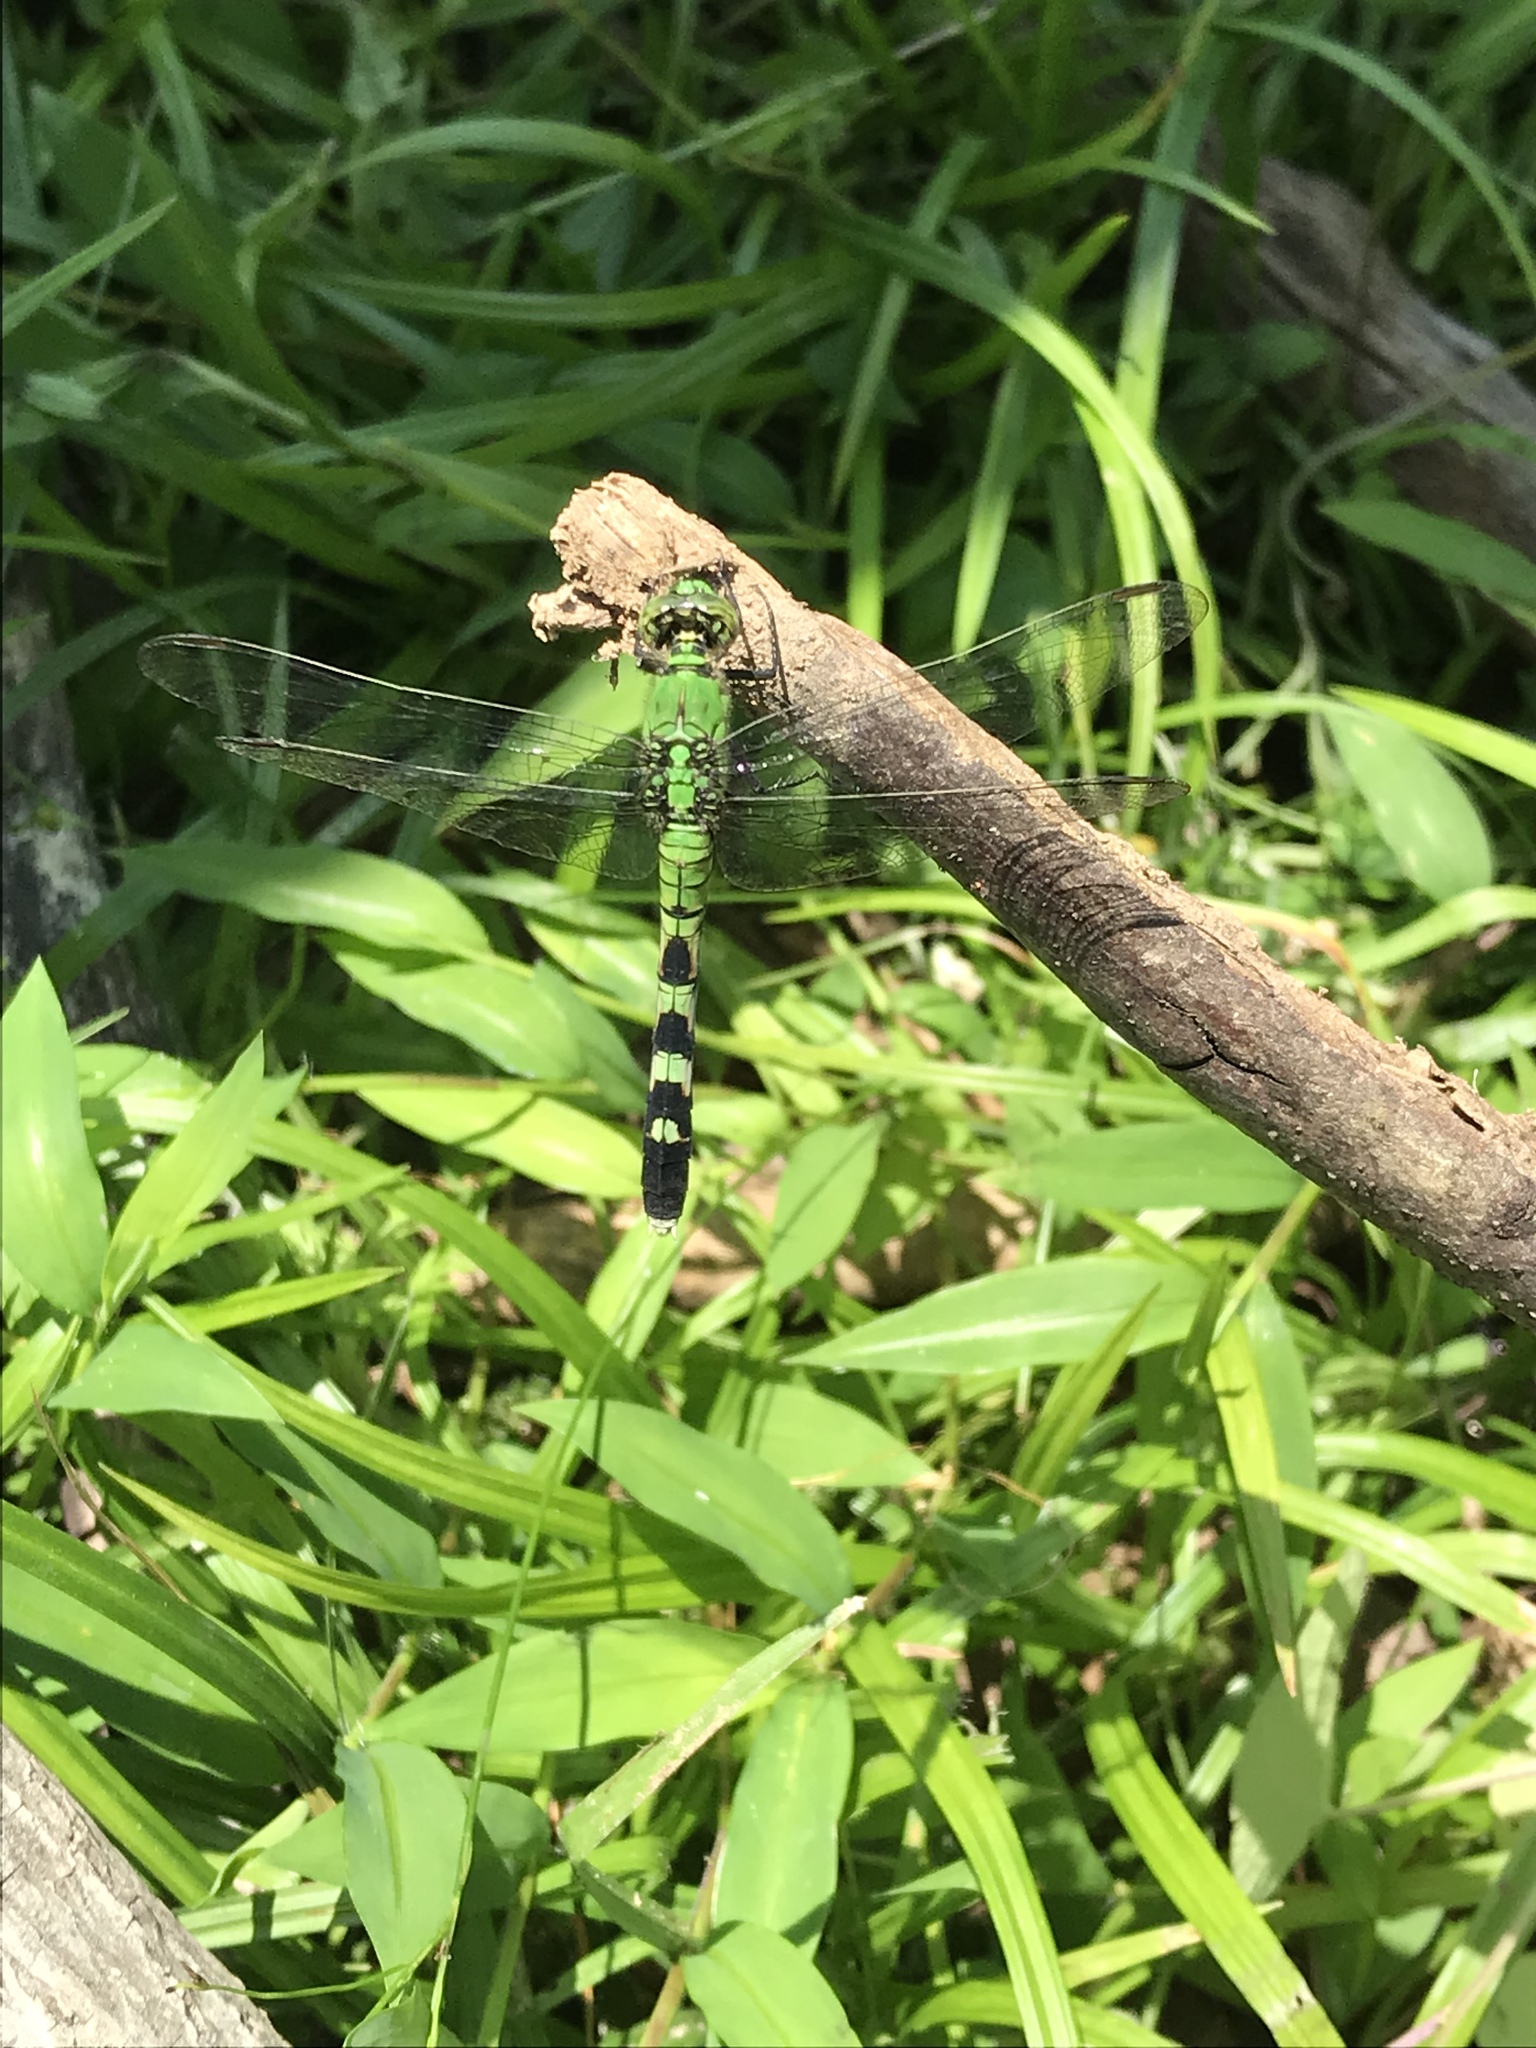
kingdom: Animalia
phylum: Arthropoda
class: Insecta
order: Odonata
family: Libellulidae
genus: Erythemis
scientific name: Erythemis simplicicollis
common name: Eastern pondhawk
